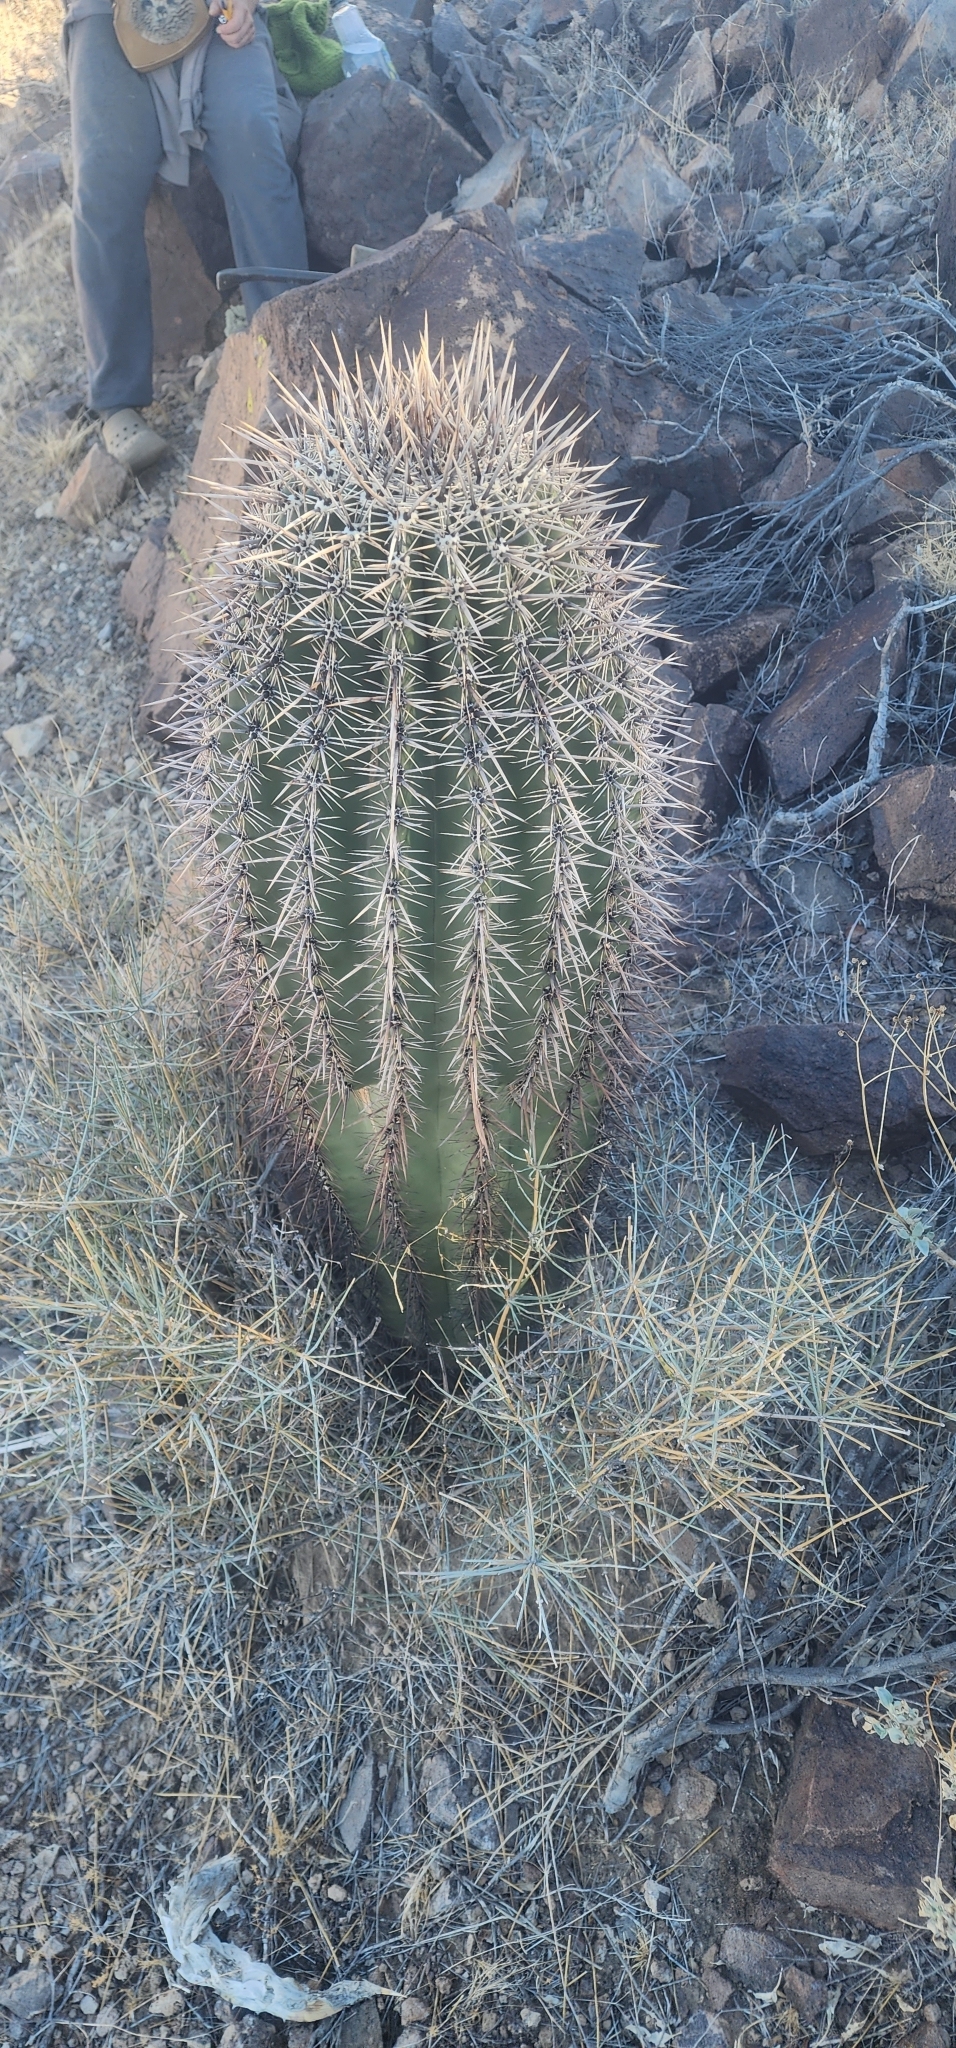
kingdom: Plantae
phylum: Tracheophyta
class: Magnoliopsida
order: Caryophyllales
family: Cactaceae
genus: Carnegiea
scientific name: Carnegiea gigantea
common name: Saguaro
